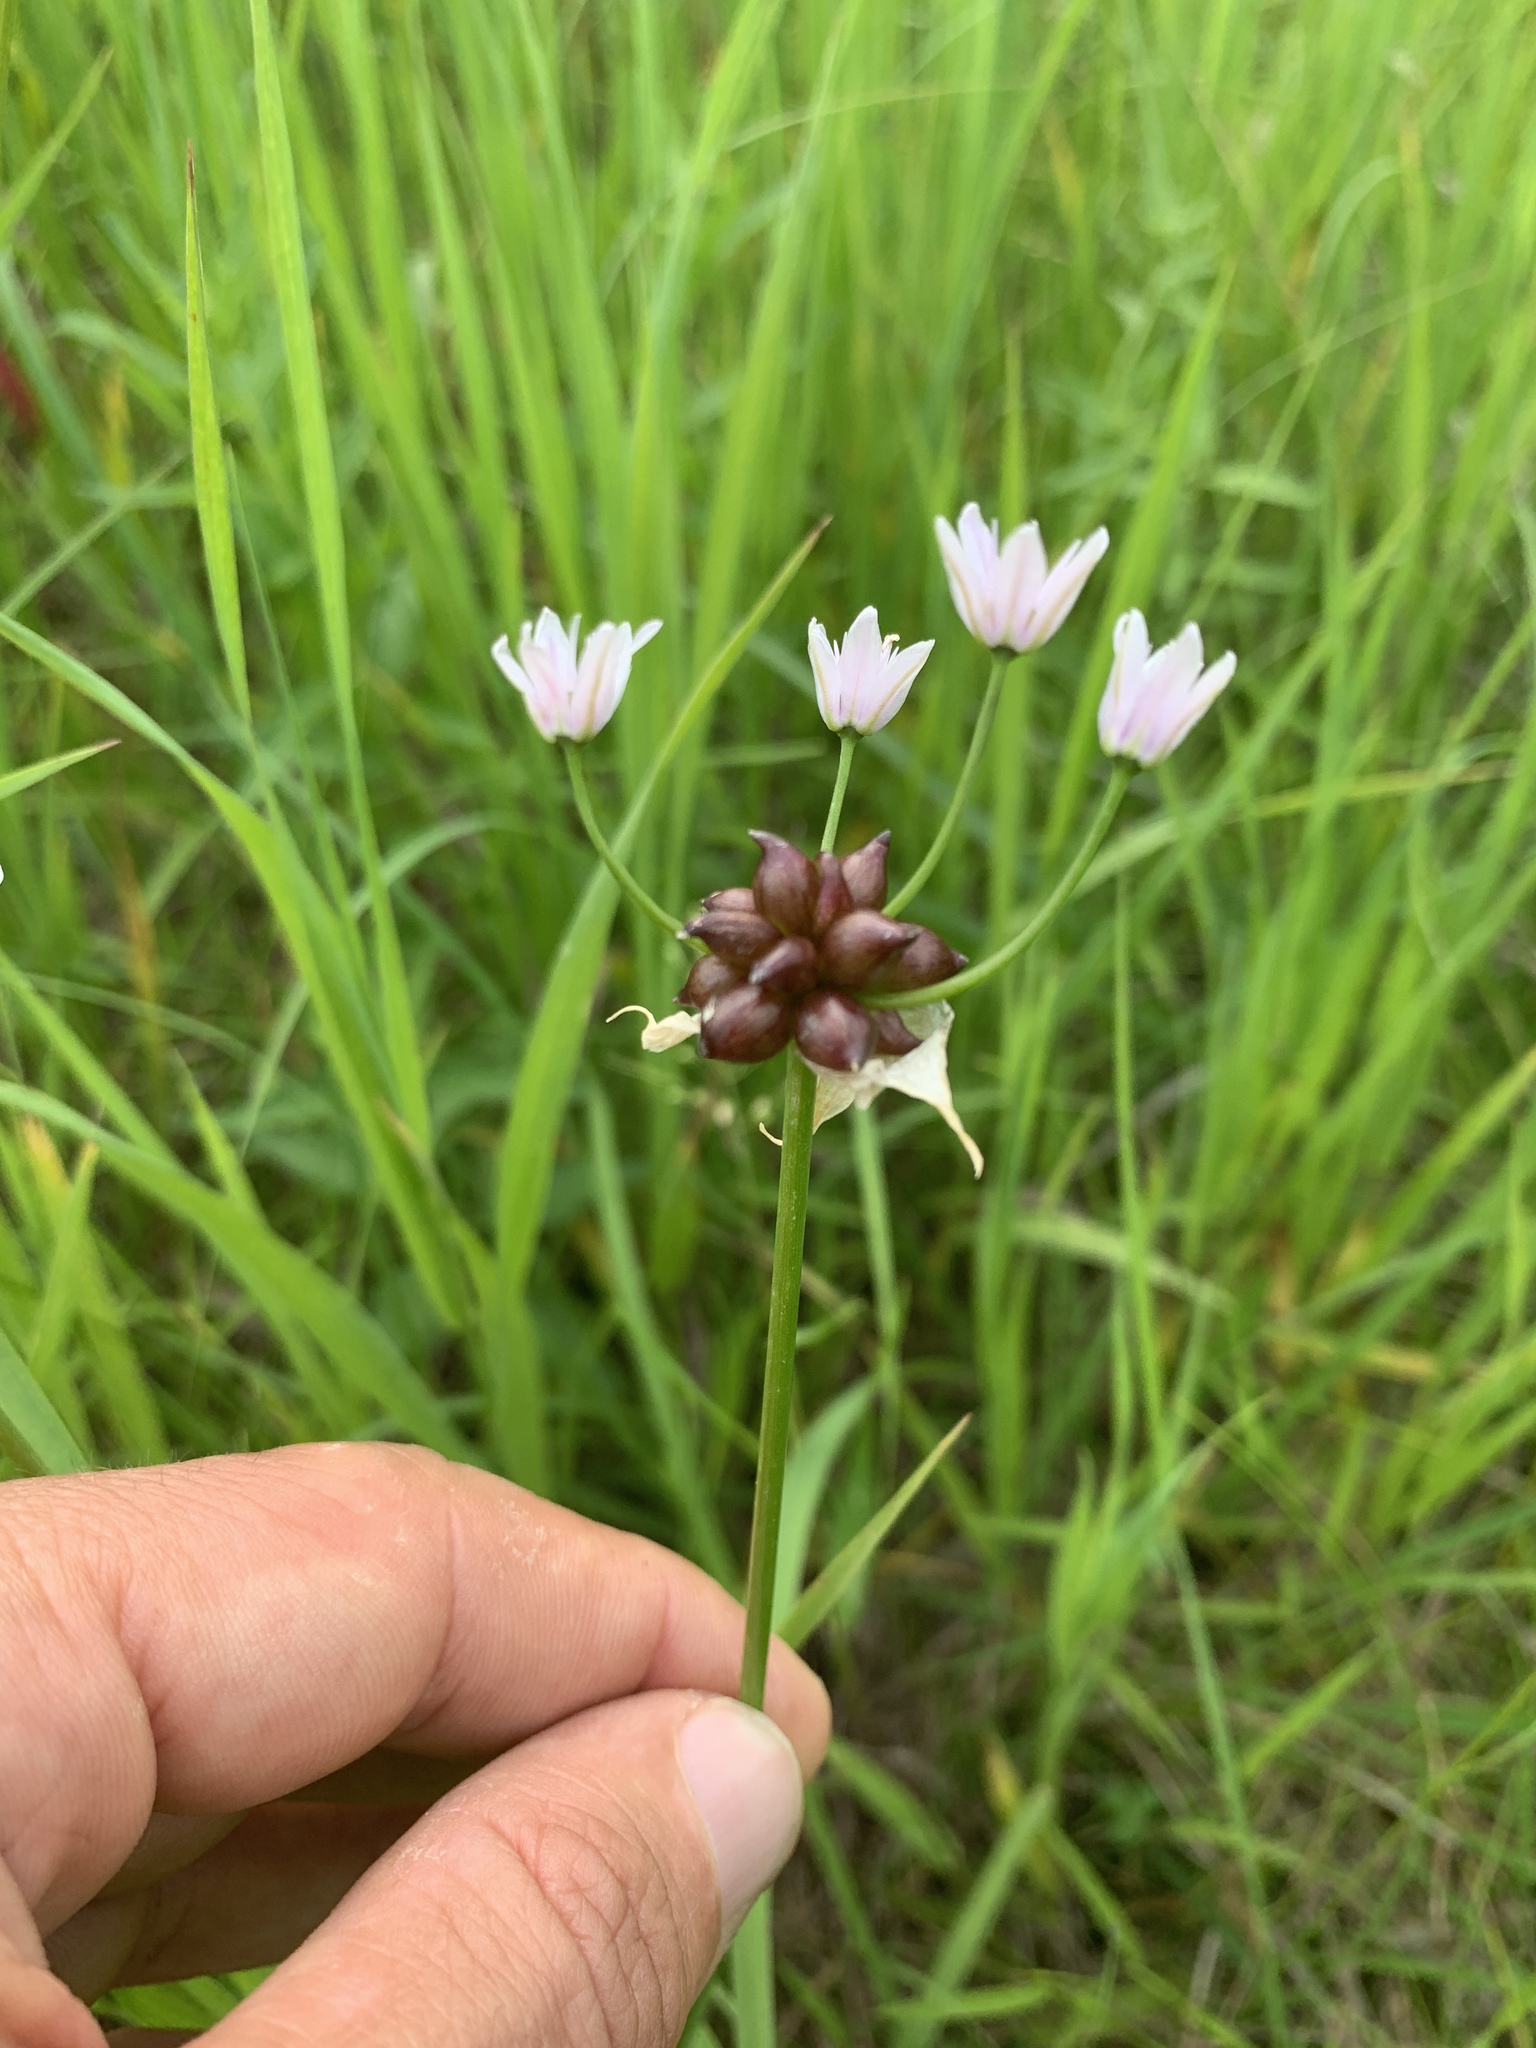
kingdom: Plantae
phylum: Tracheophyta
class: Liliopsida
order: Asparagales
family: Amaryllidaceae
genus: Allium
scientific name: Allium canadense
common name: Meadow garlic
